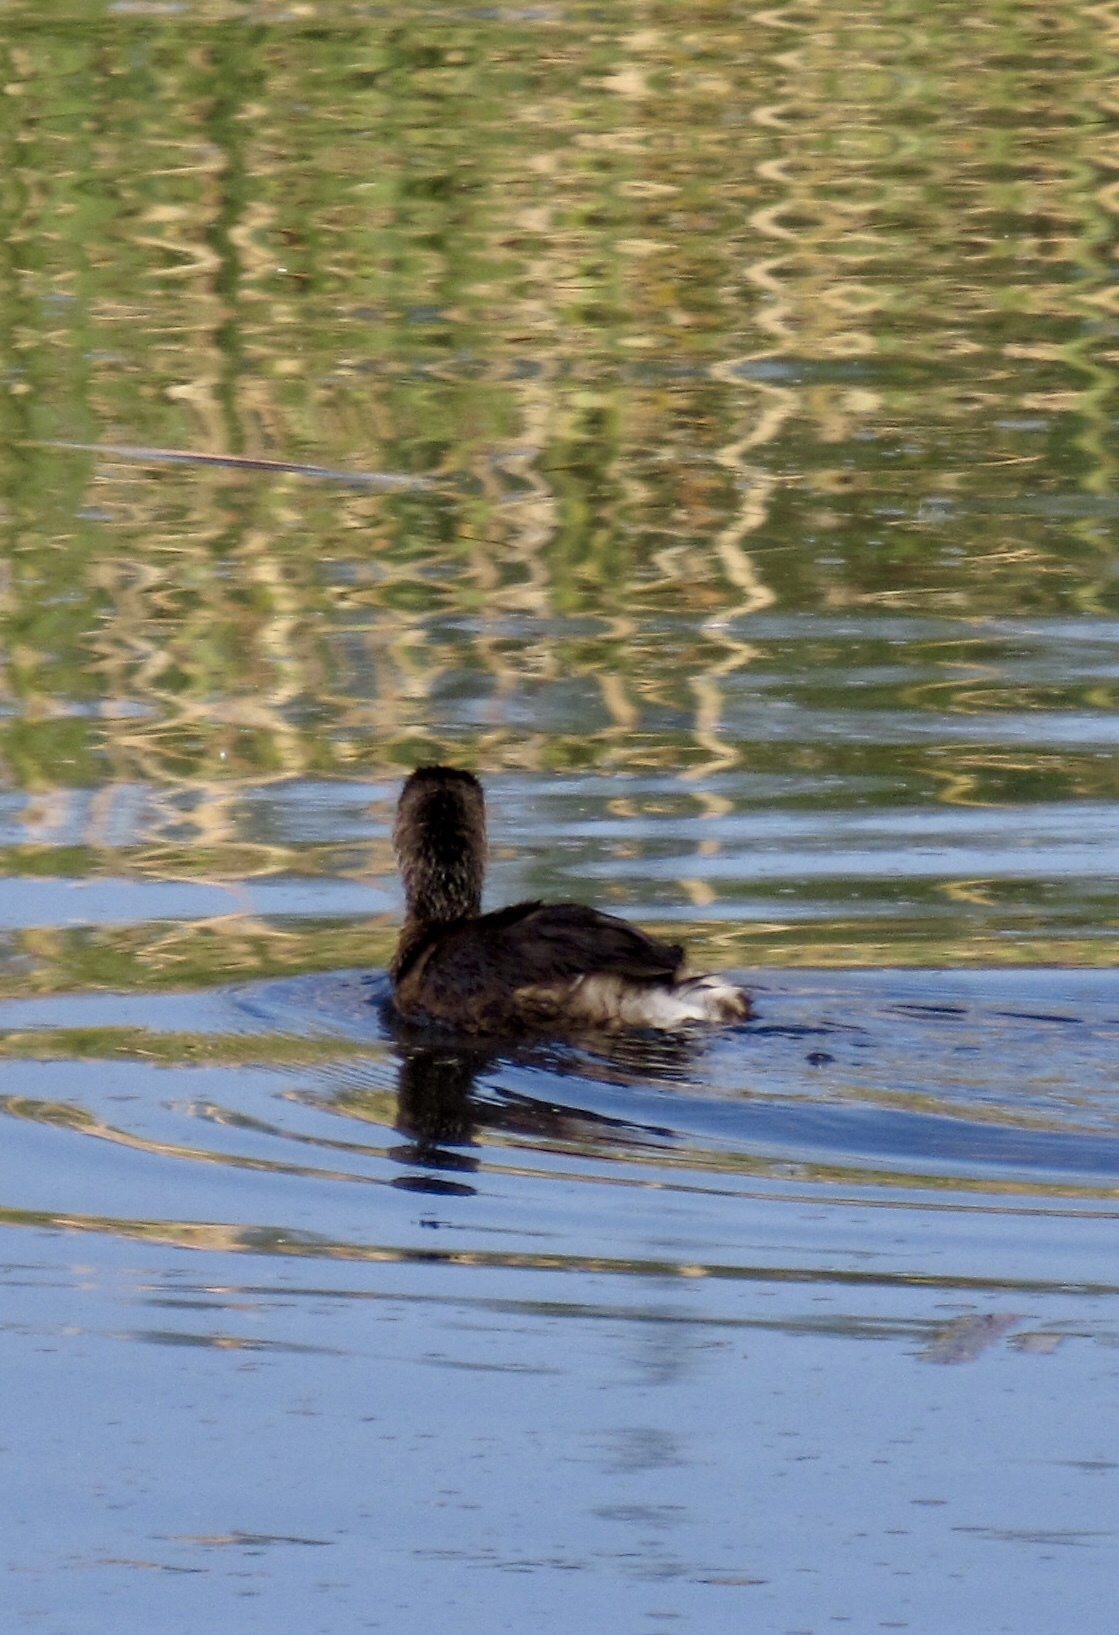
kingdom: Animalia
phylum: Chordata
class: Aves
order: Podicipediformes
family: Podicipedidae
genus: Podilymbus
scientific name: Podilymbus podiceps
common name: Pied-billed grebe
